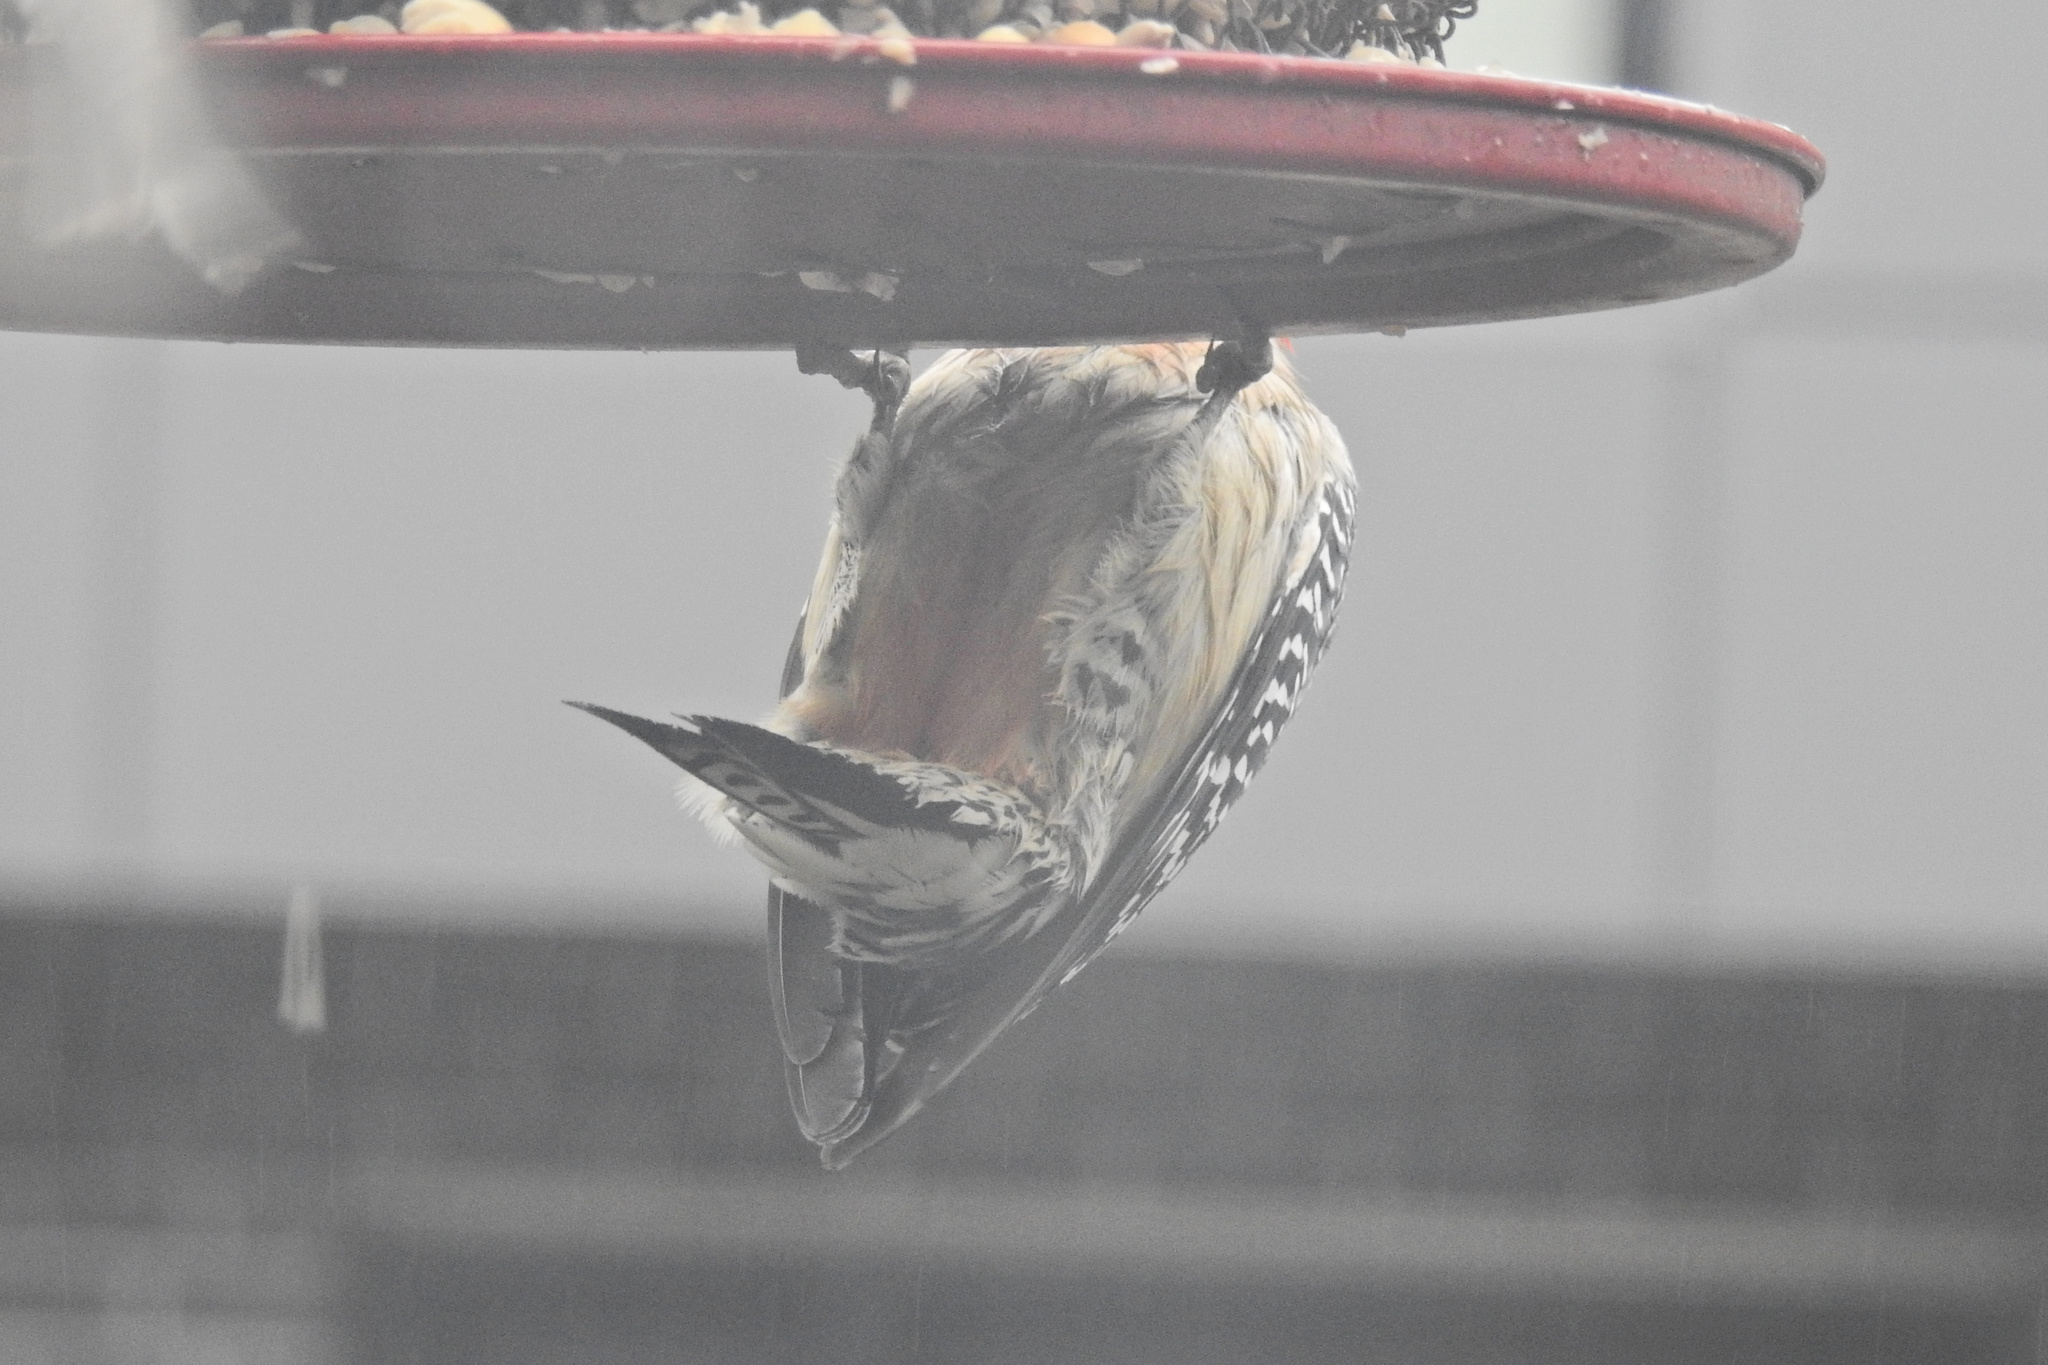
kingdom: Animalia
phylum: Chordata
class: Aves
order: Piciformes
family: Picidae
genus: Melanerpes
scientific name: Melanerpes carolinus
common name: Red-bellied woodpecker
